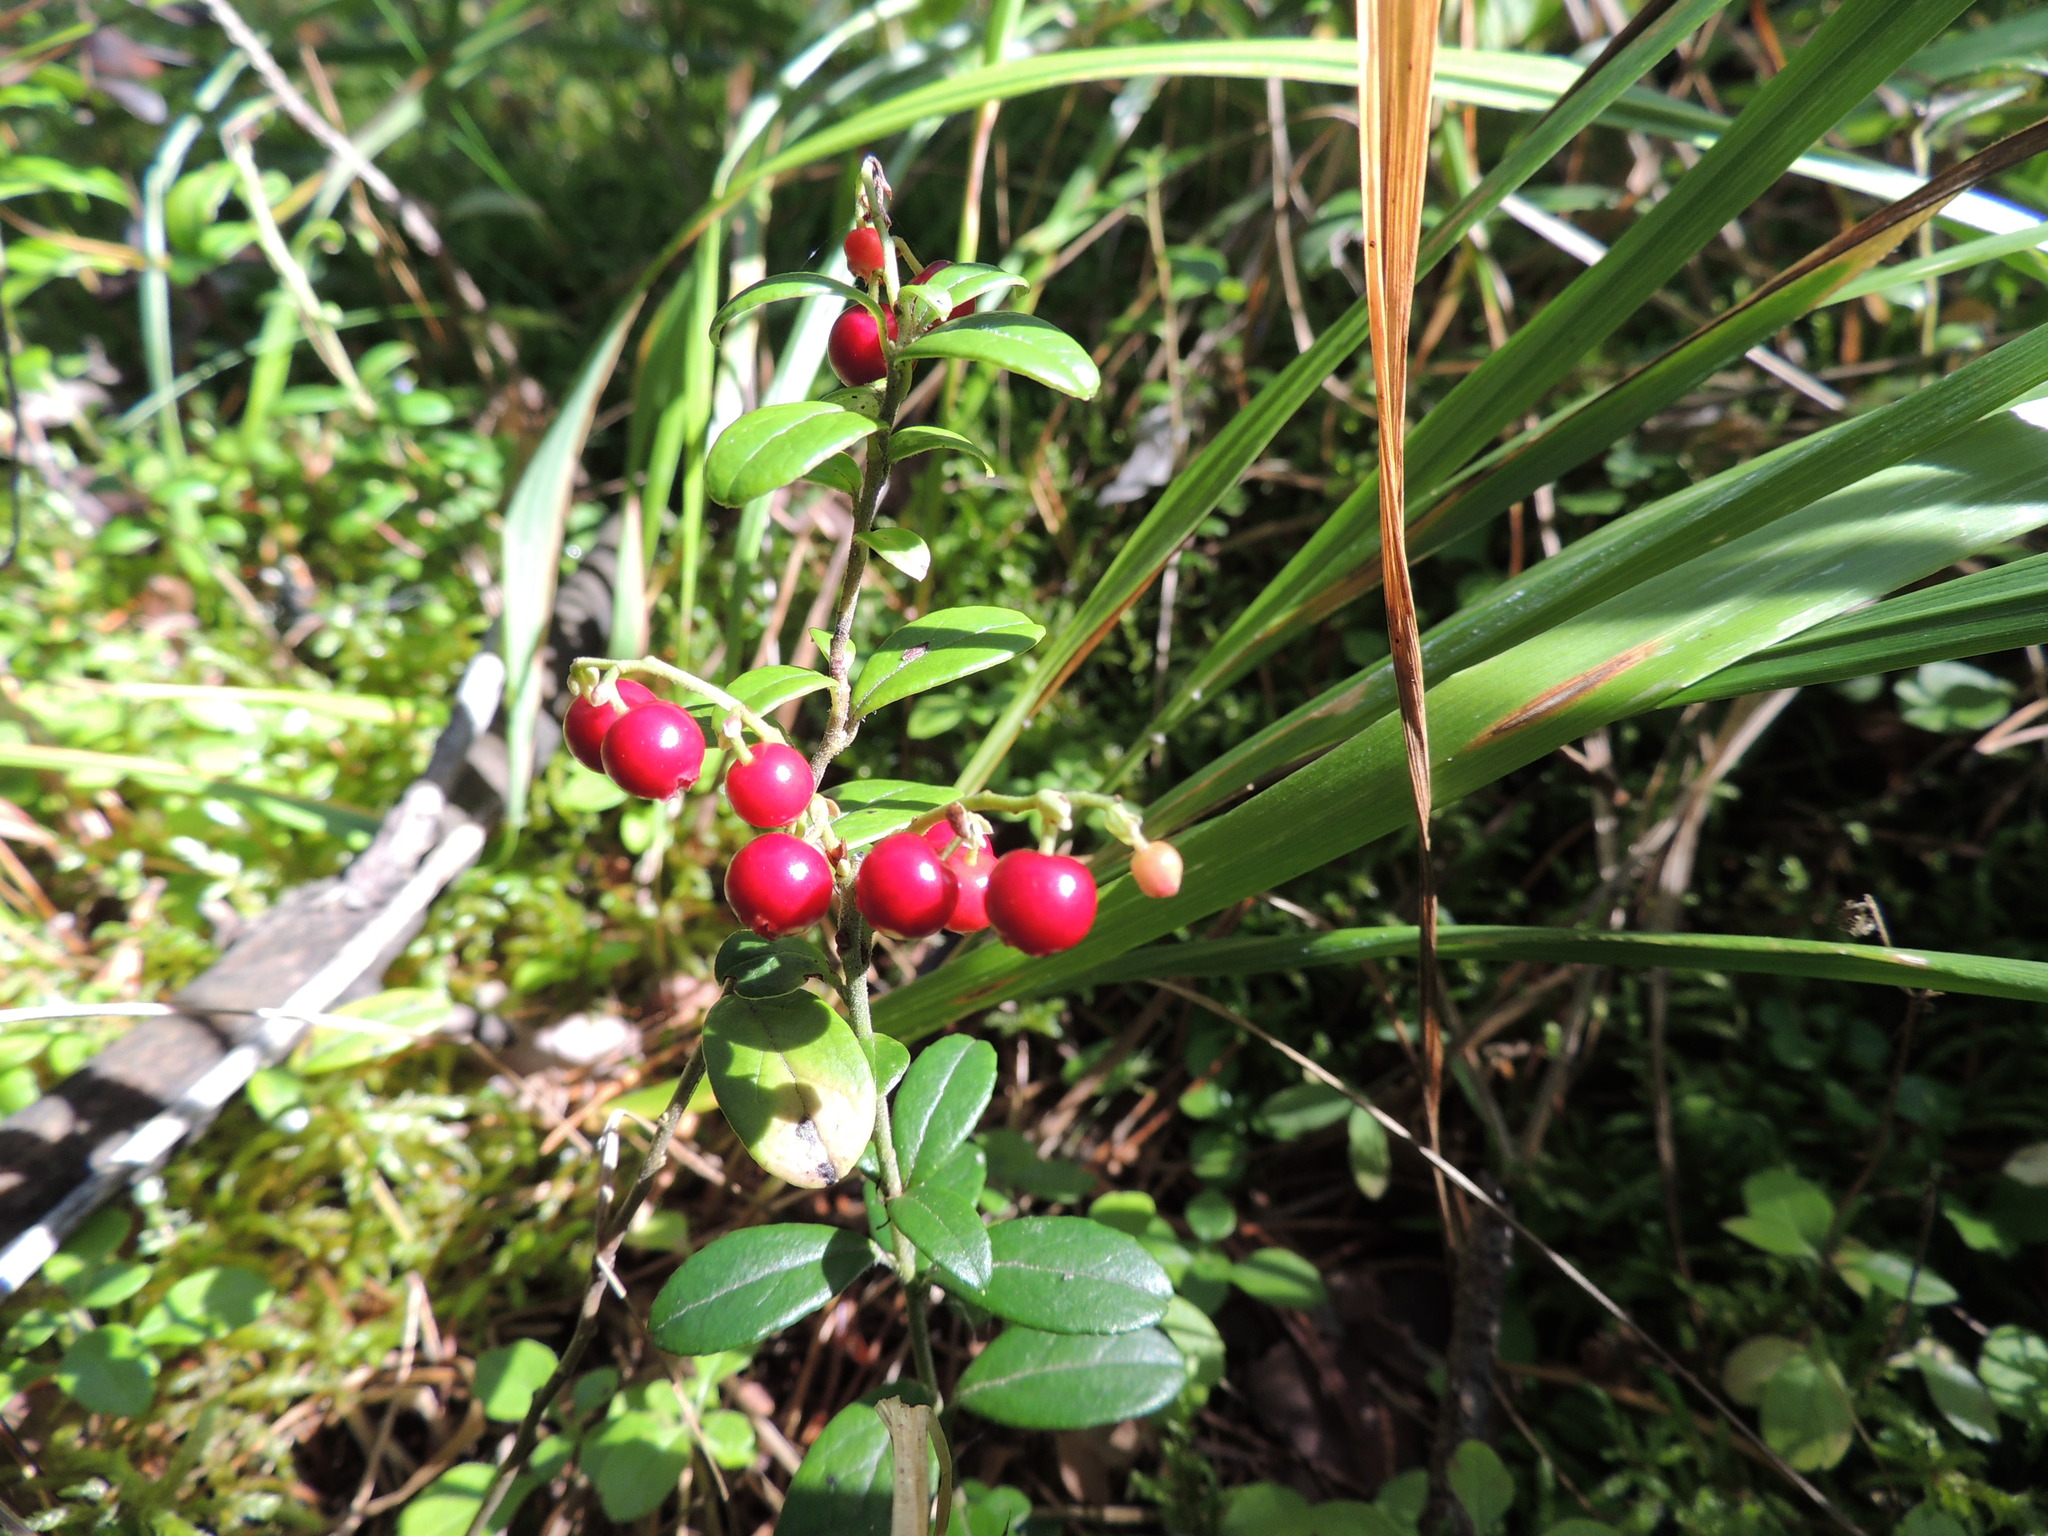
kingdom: Plantae
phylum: Tracheophyta
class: Magnoliopsida
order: Ericales
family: Ericaceae
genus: Vaccinium
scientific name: Vaccinium vitis-idaea
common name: Cowberry
